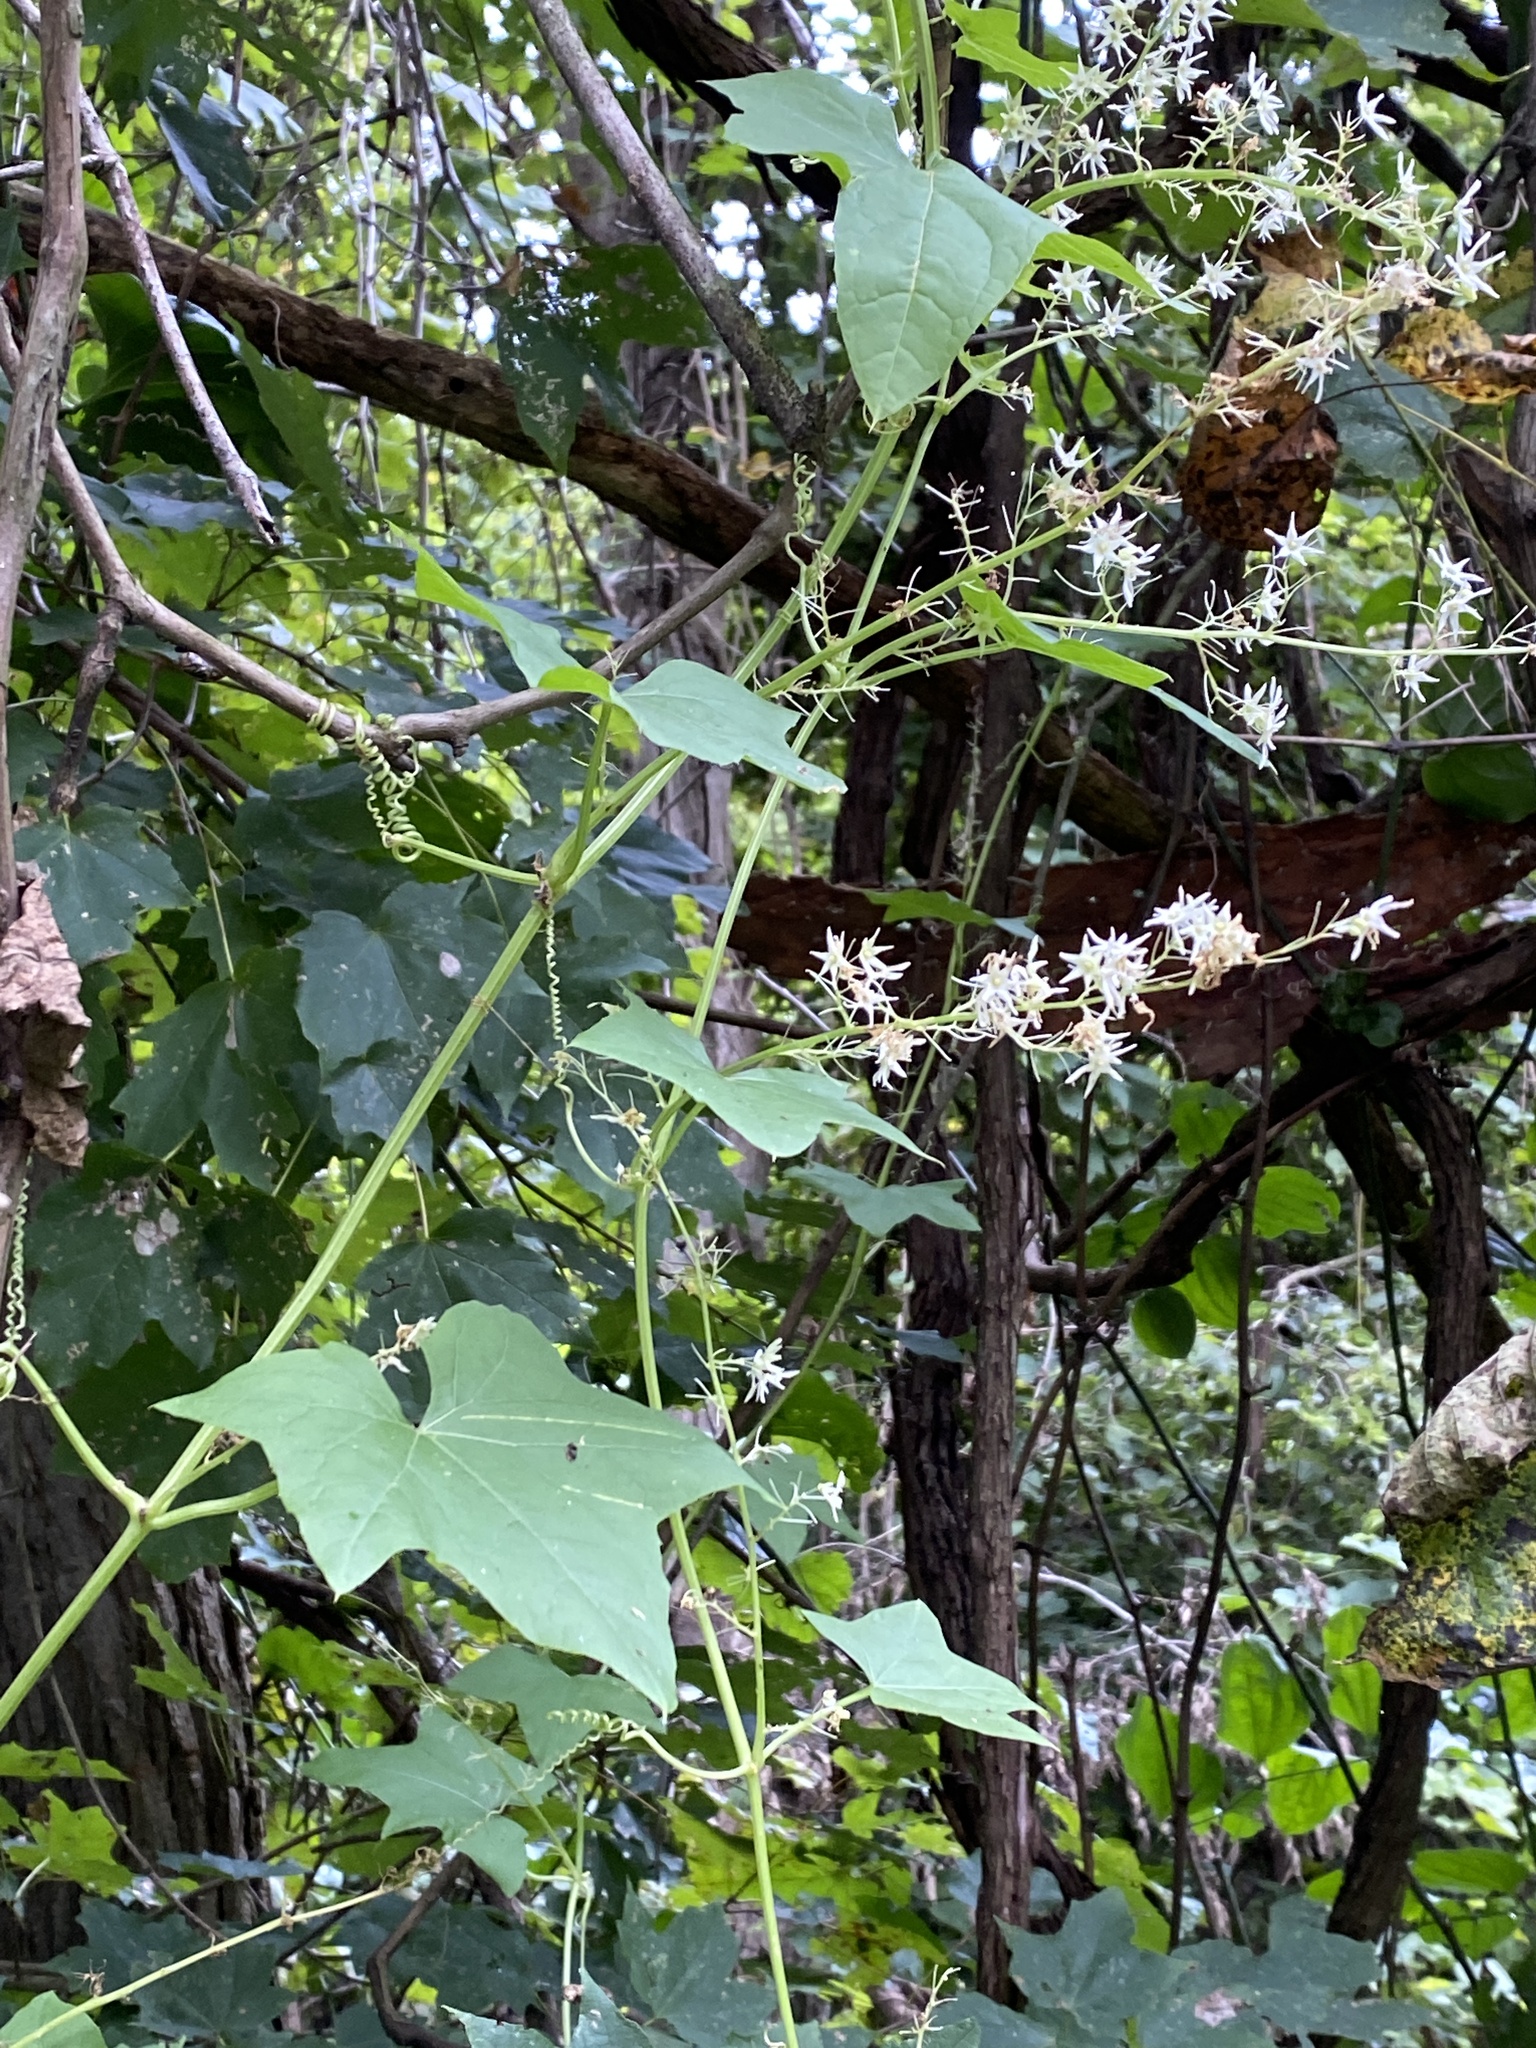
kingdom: Plantae
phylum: Tracheophyta
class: Magnoliopsida
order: Cucurbitales
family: Cucurbitaceae
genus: Echinocystis
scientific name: Echinocystis lobata
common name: Wild cucumber
